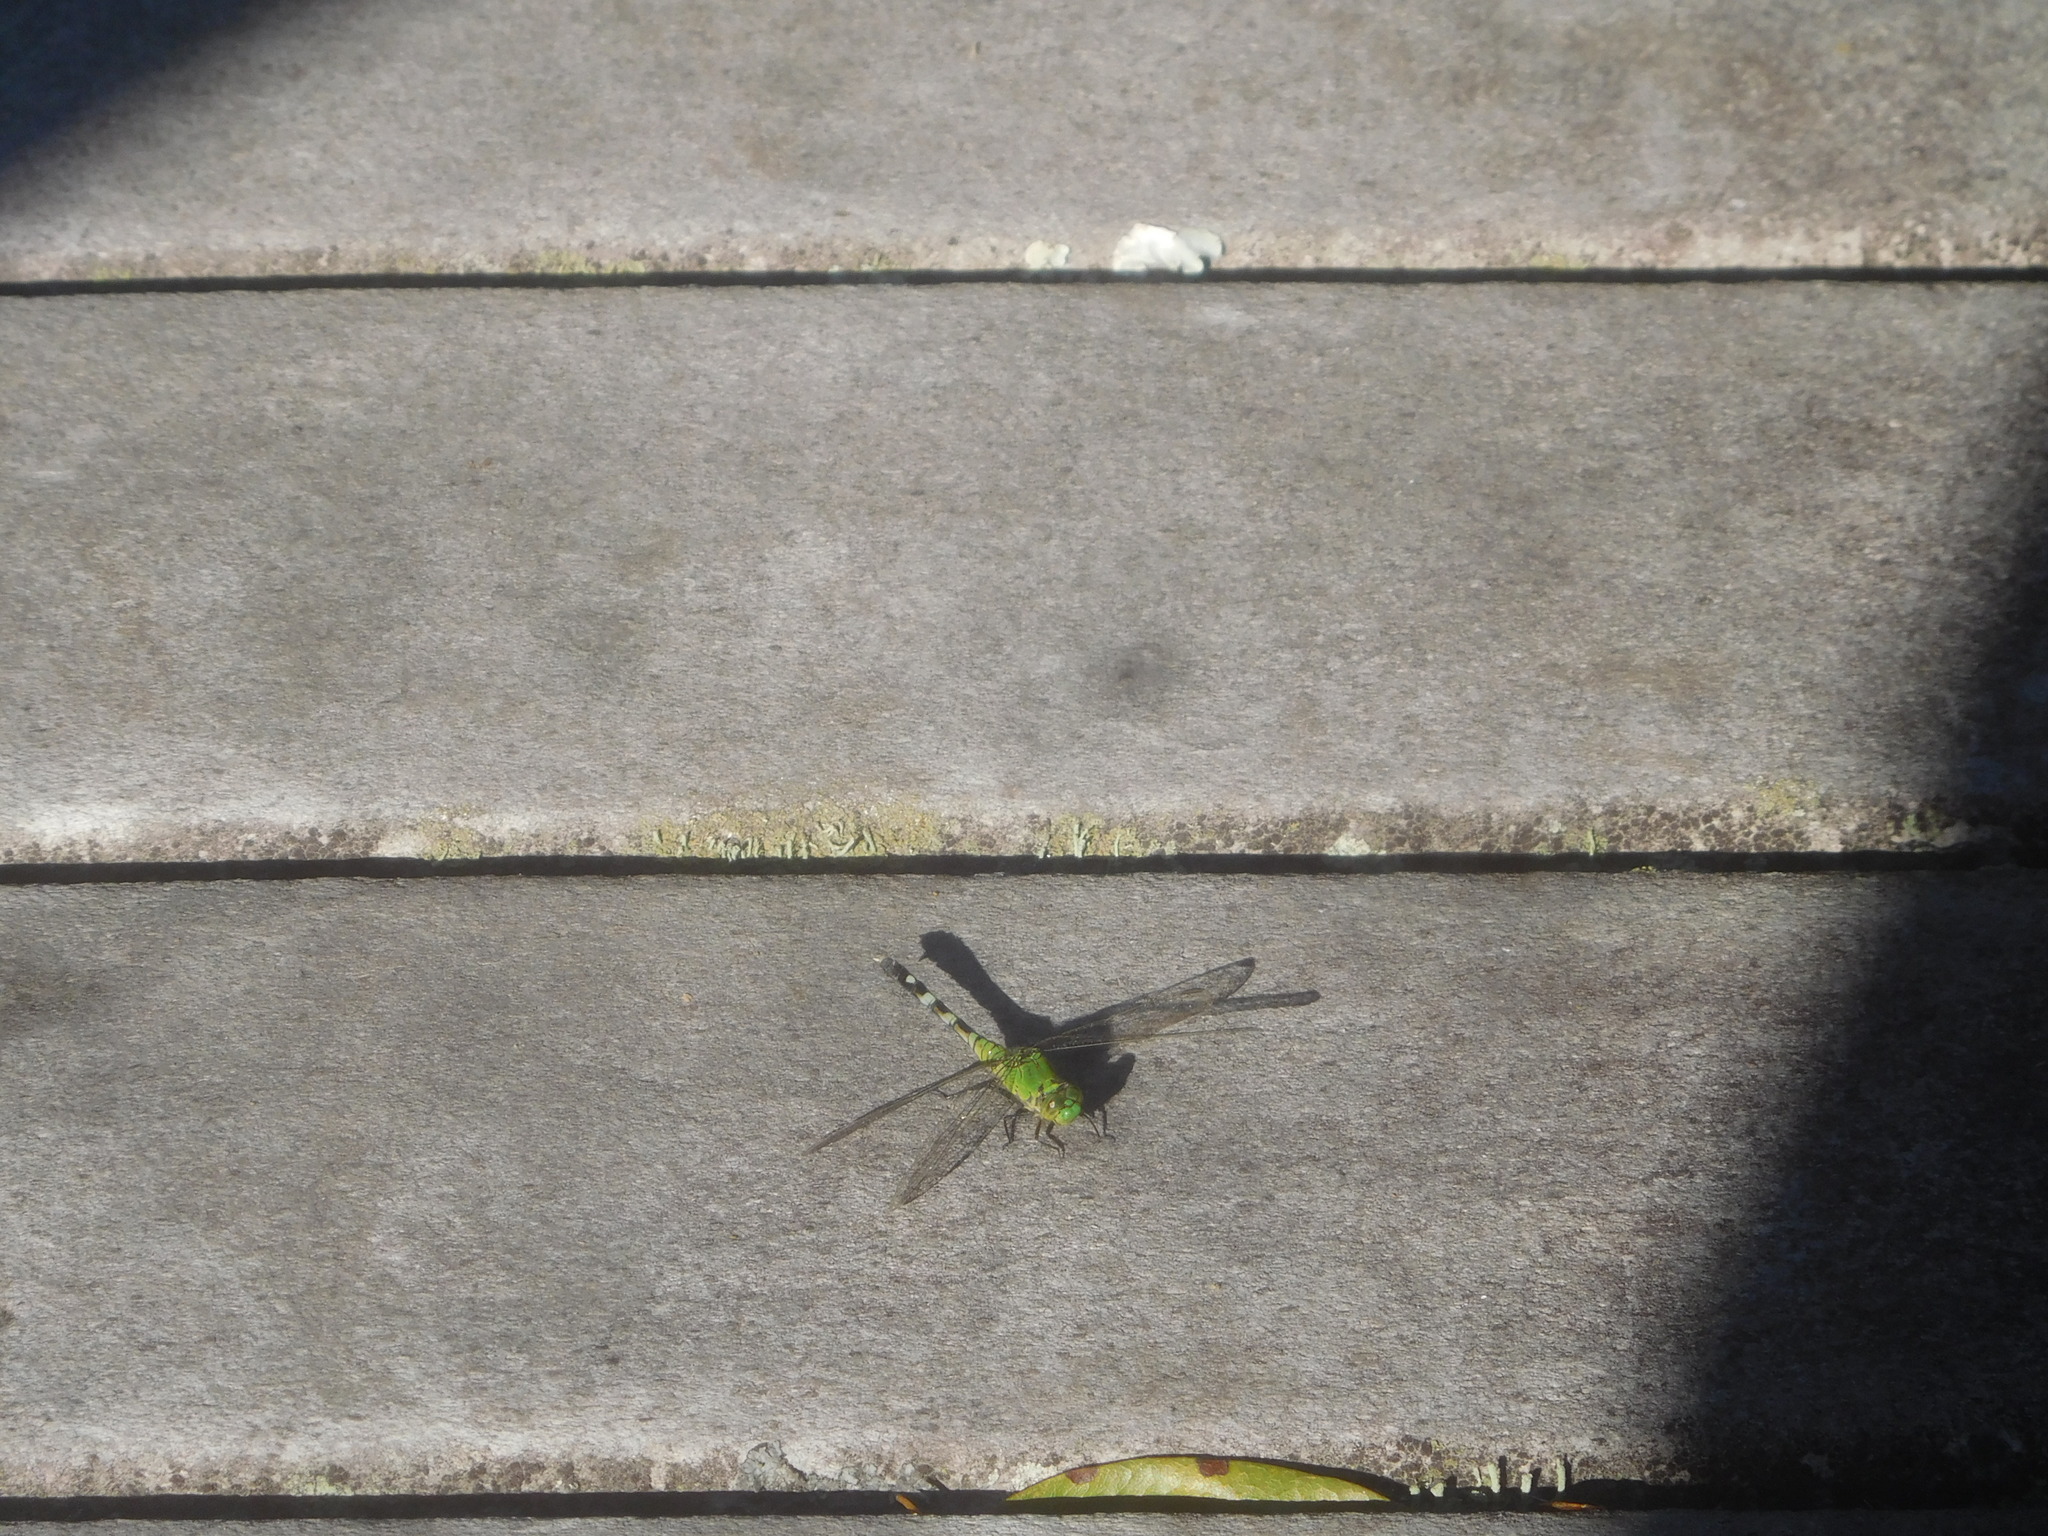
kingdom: Animalia
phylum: Arthropoda
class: Insecta
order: Odonata
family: Libellulidae
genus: Erythemis
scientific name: Erythemis simplicicollis
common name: Eastern pondhawk
